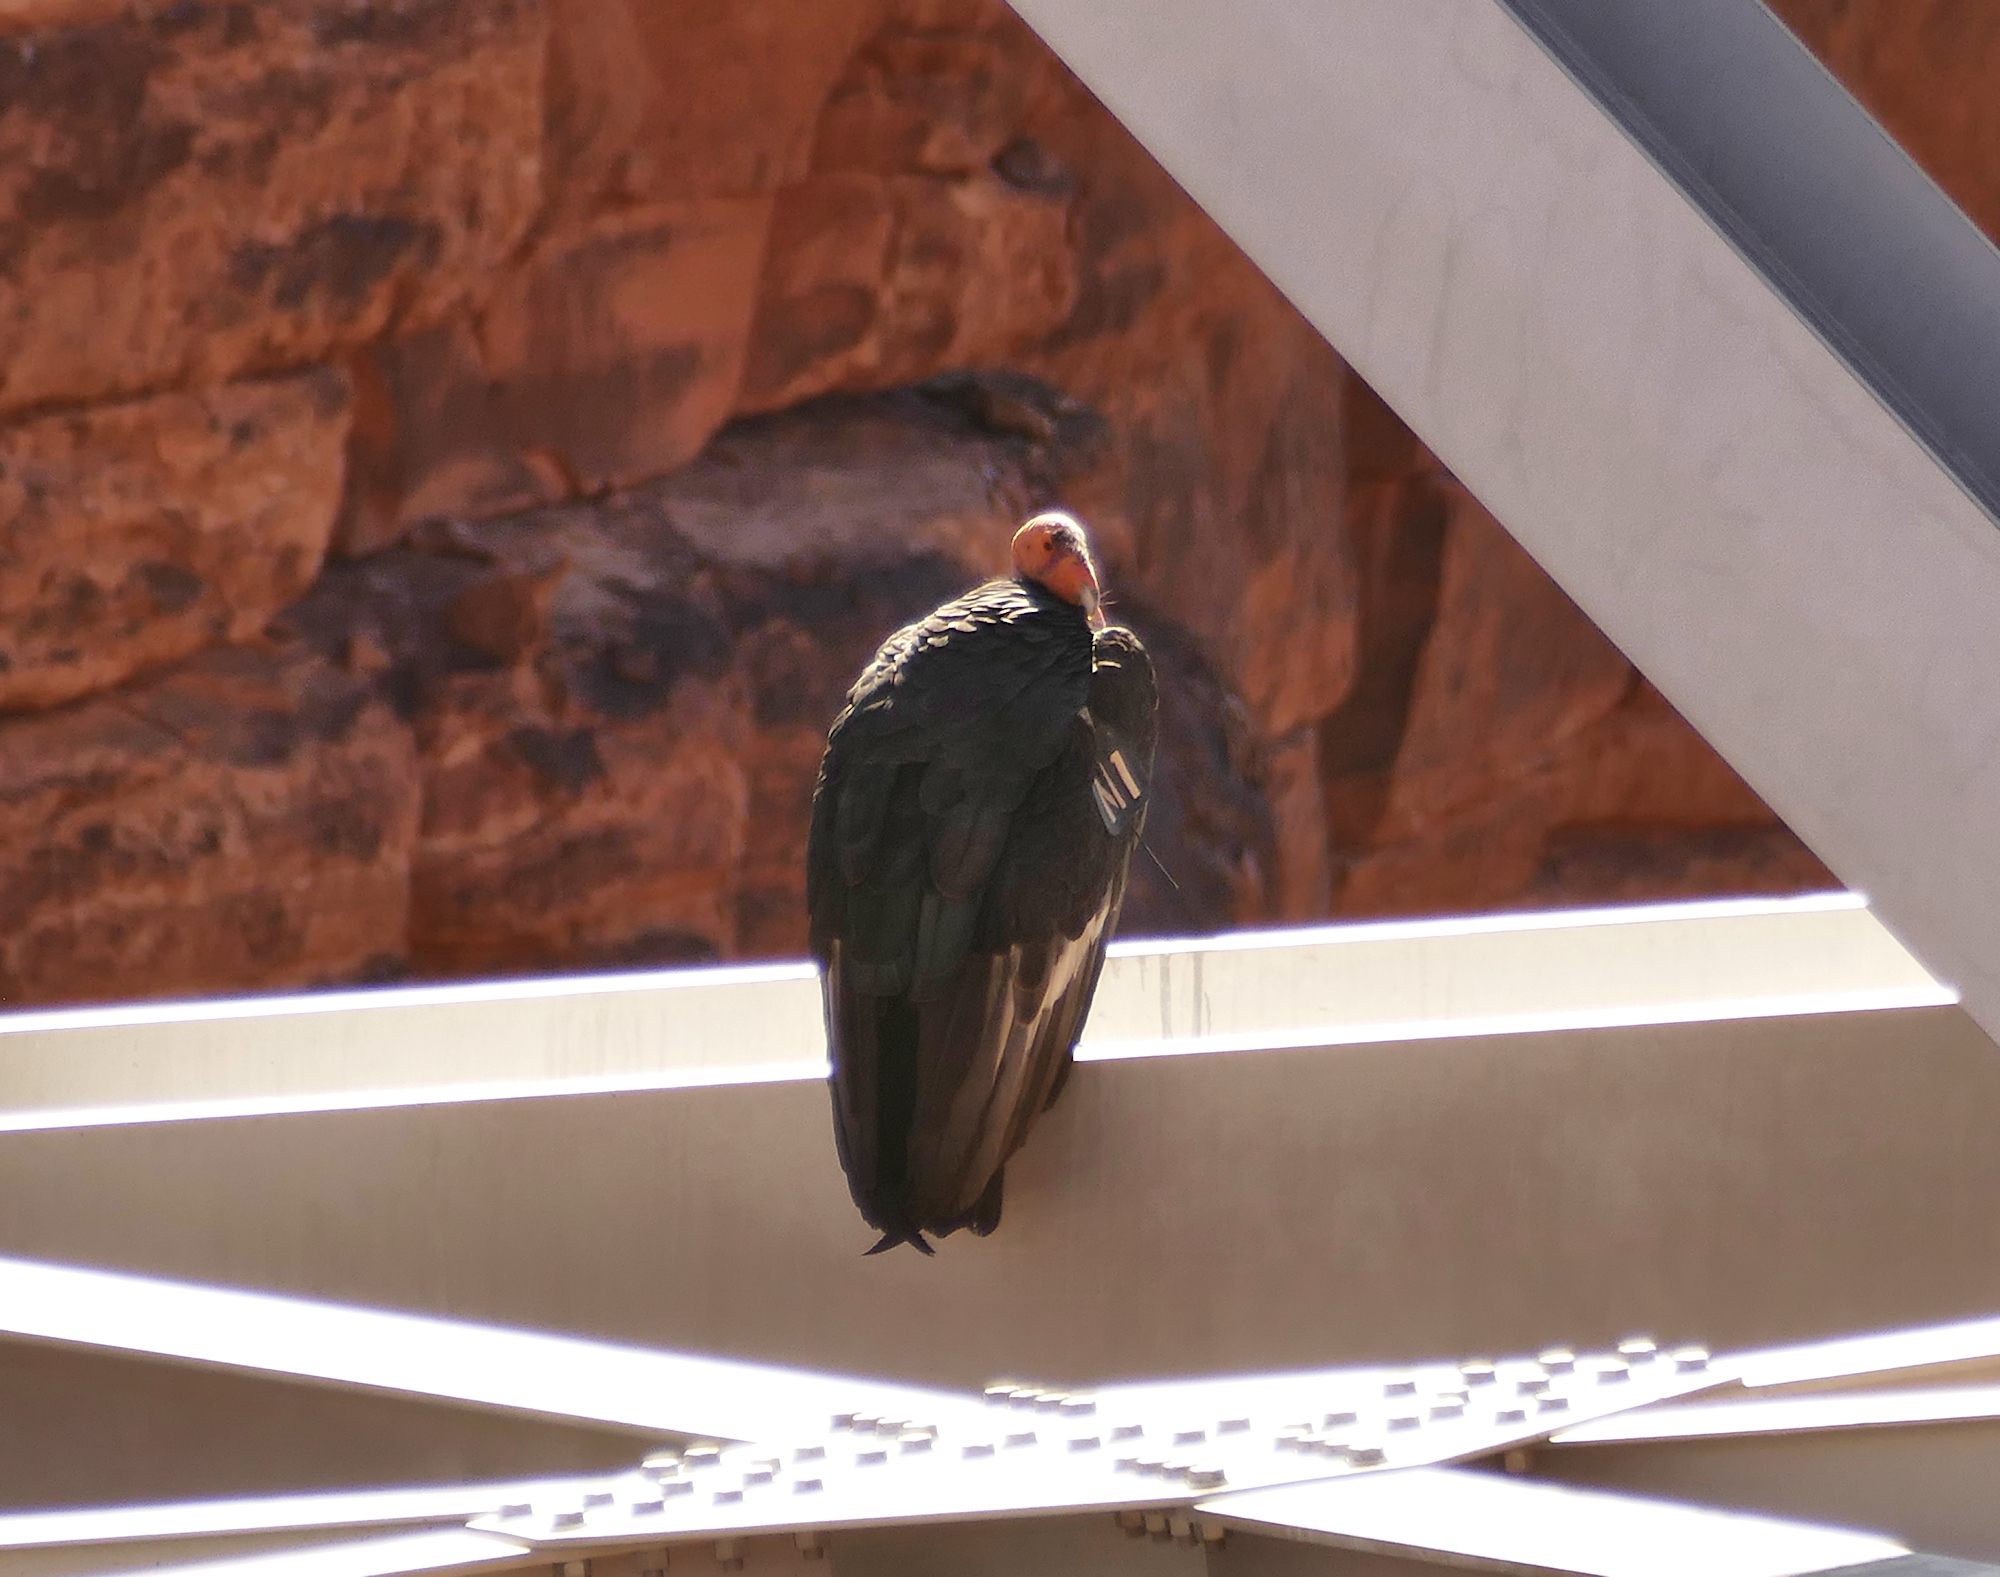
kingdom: Animalia
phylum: Chordata
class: Aves
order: Accipitriformes
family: Cathartidae
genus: Gymnogyps
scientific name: Gymnogyps californianus
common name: California condor
